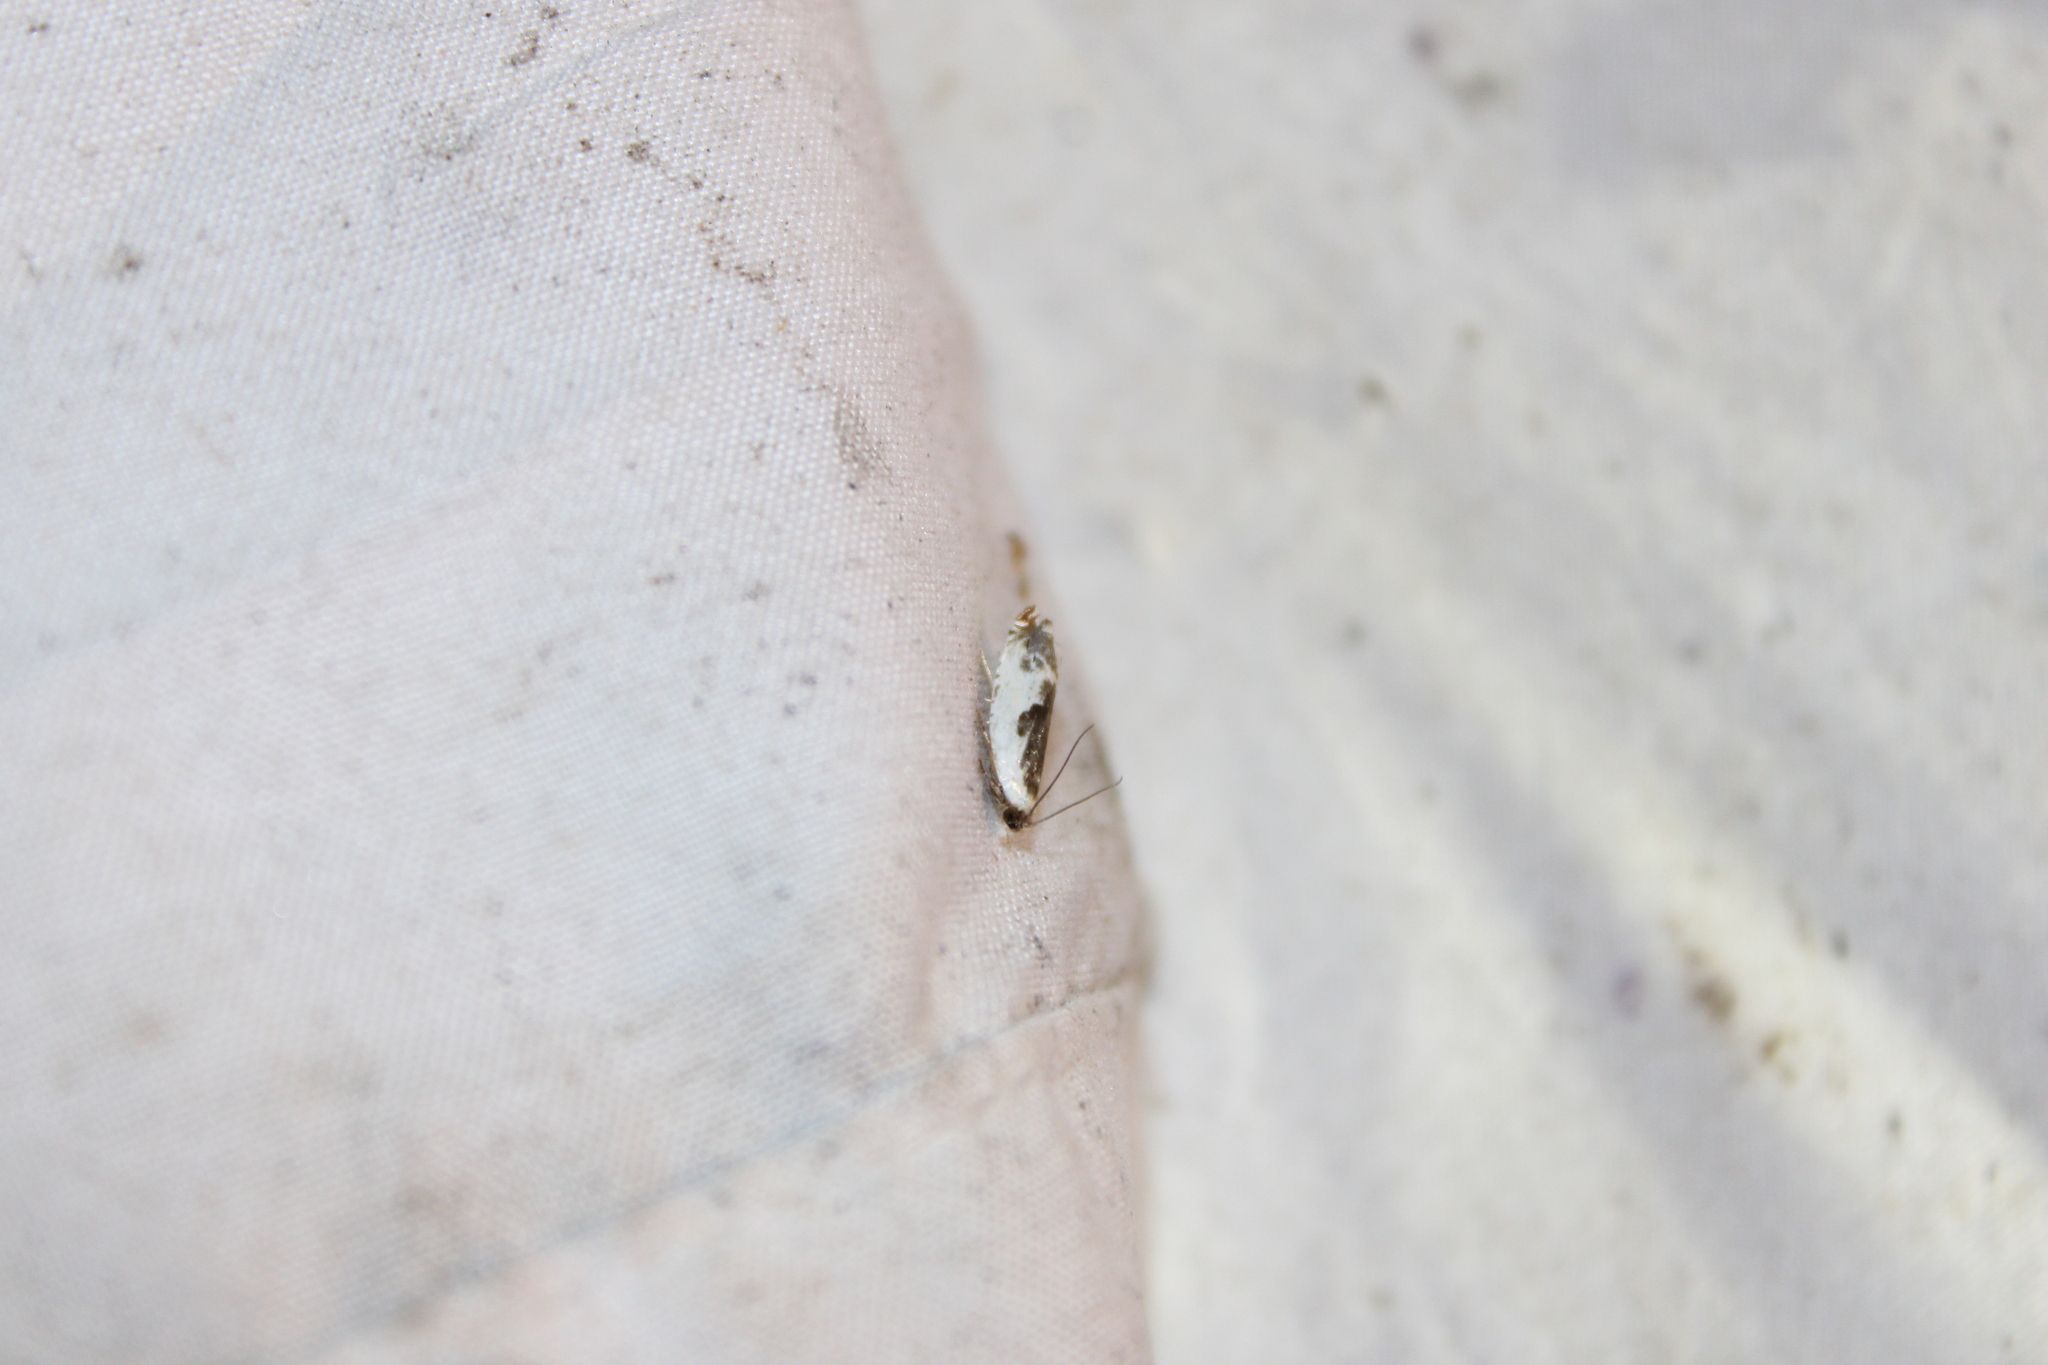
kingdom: Animalia
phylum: Arthropoda
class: Insecta
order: Lepidoptera
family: Tortricidae
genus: Ancylis
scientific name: Ancylis nubeculana
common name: Little cloud ancylis moth
